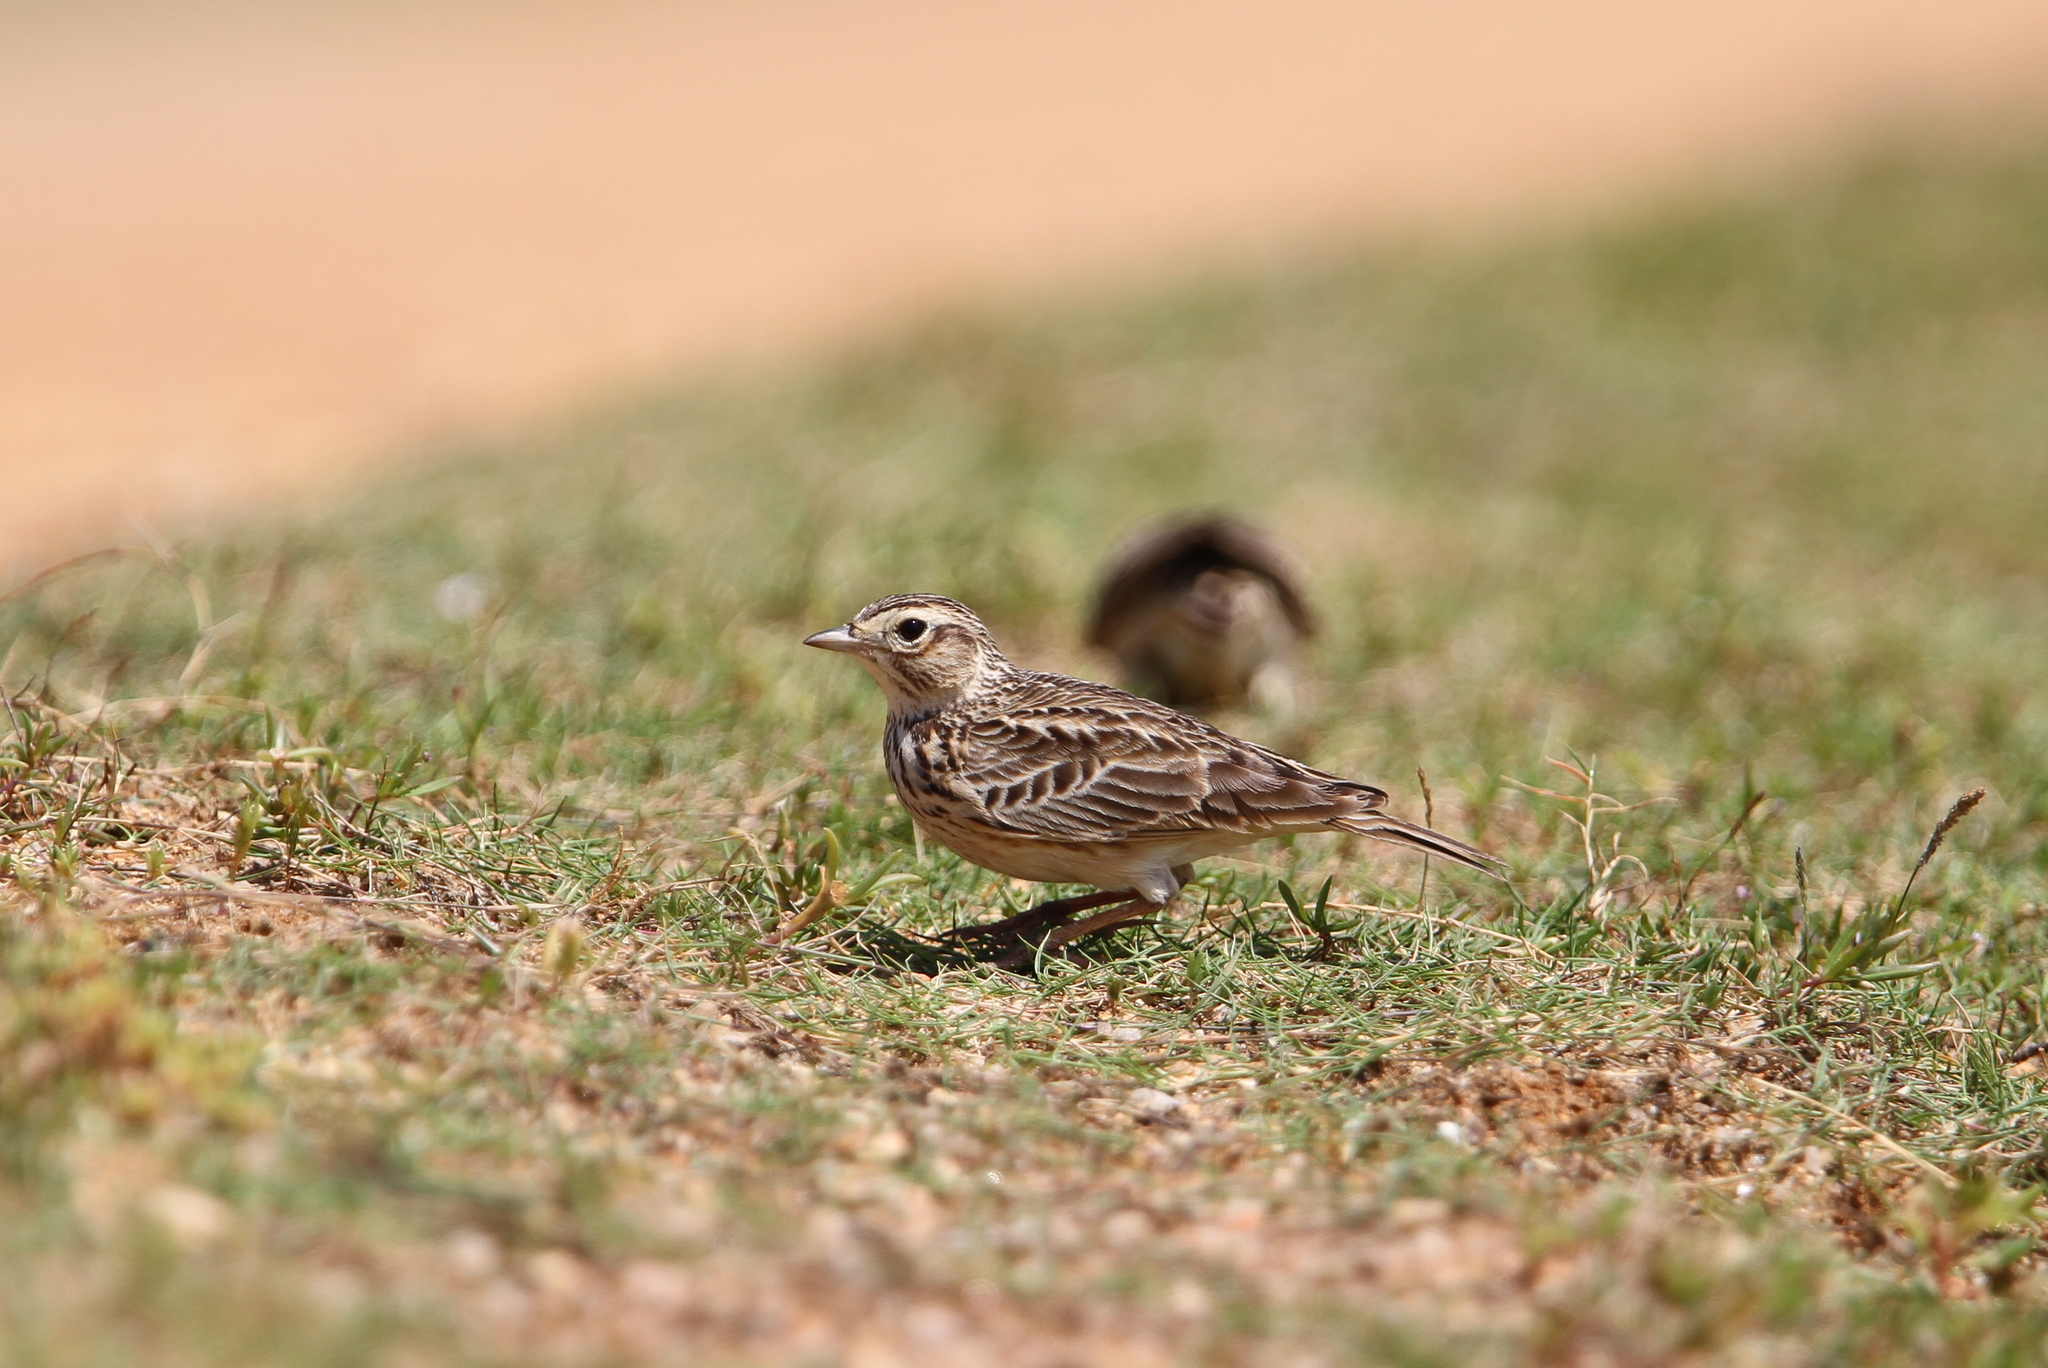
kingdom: Animalia
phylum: Chordata
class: Aves
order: Passeriformes
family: Alaudidae
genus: Alauda
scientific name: Alauda gulgula
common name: Oriental skylark
